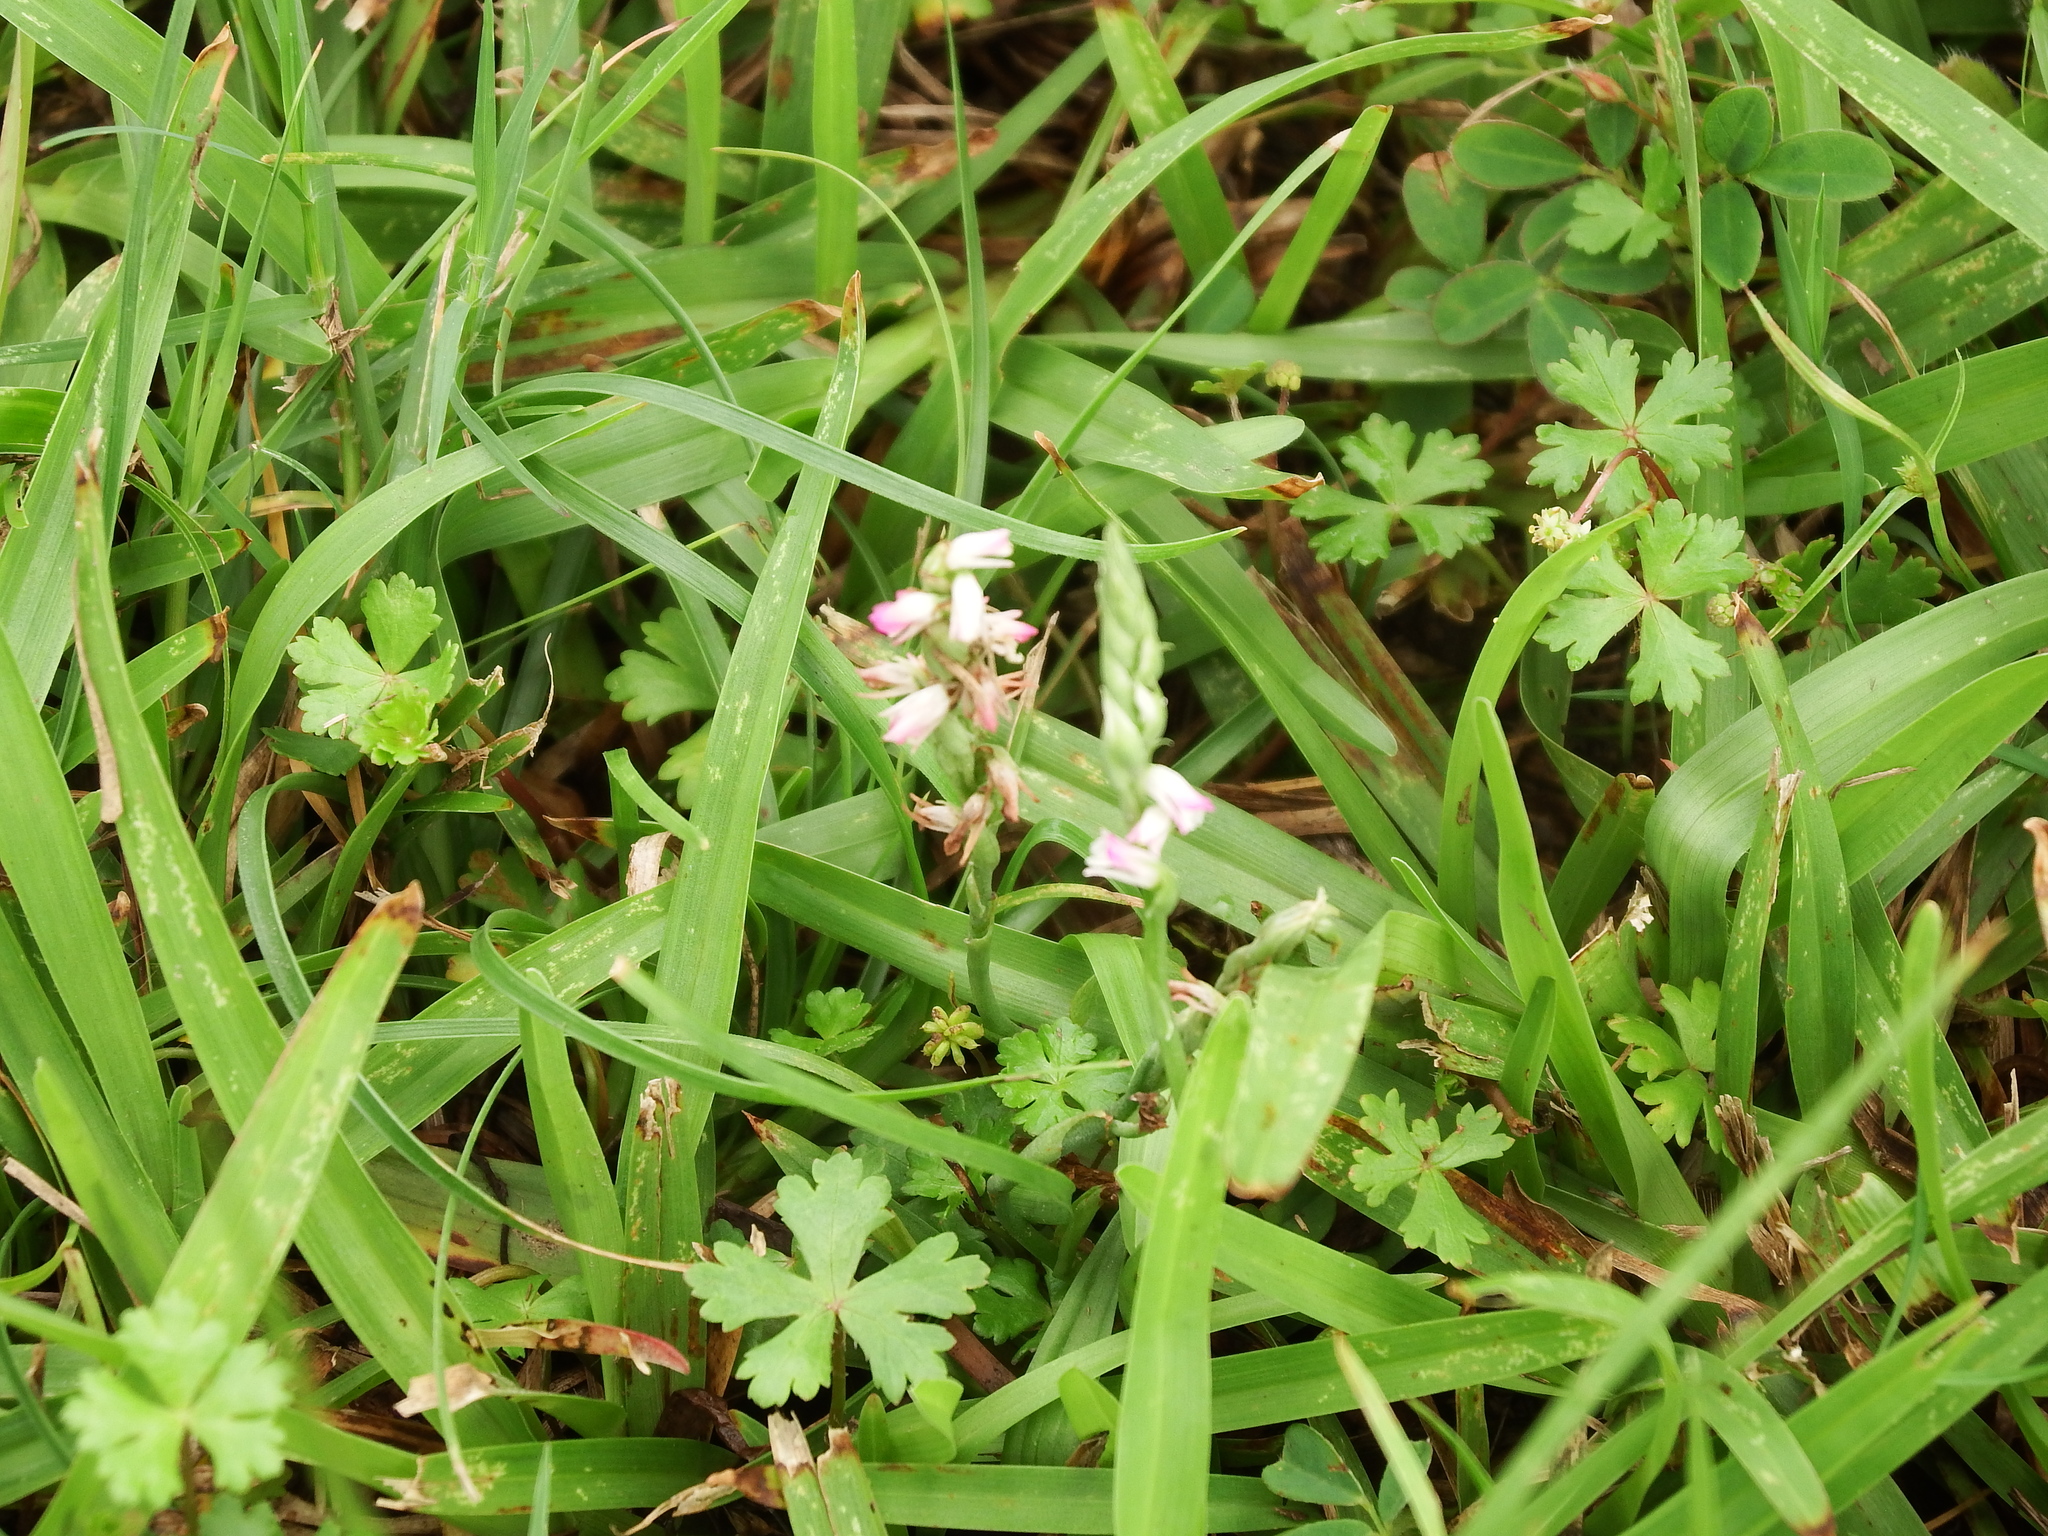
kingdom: Plantae
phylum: Tracheophyta
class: Liliopsida
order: Asparagales
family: Orchidaceae
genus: Spiranthes
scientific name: Spiranthes sinensis
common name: Chinese spiranthes
